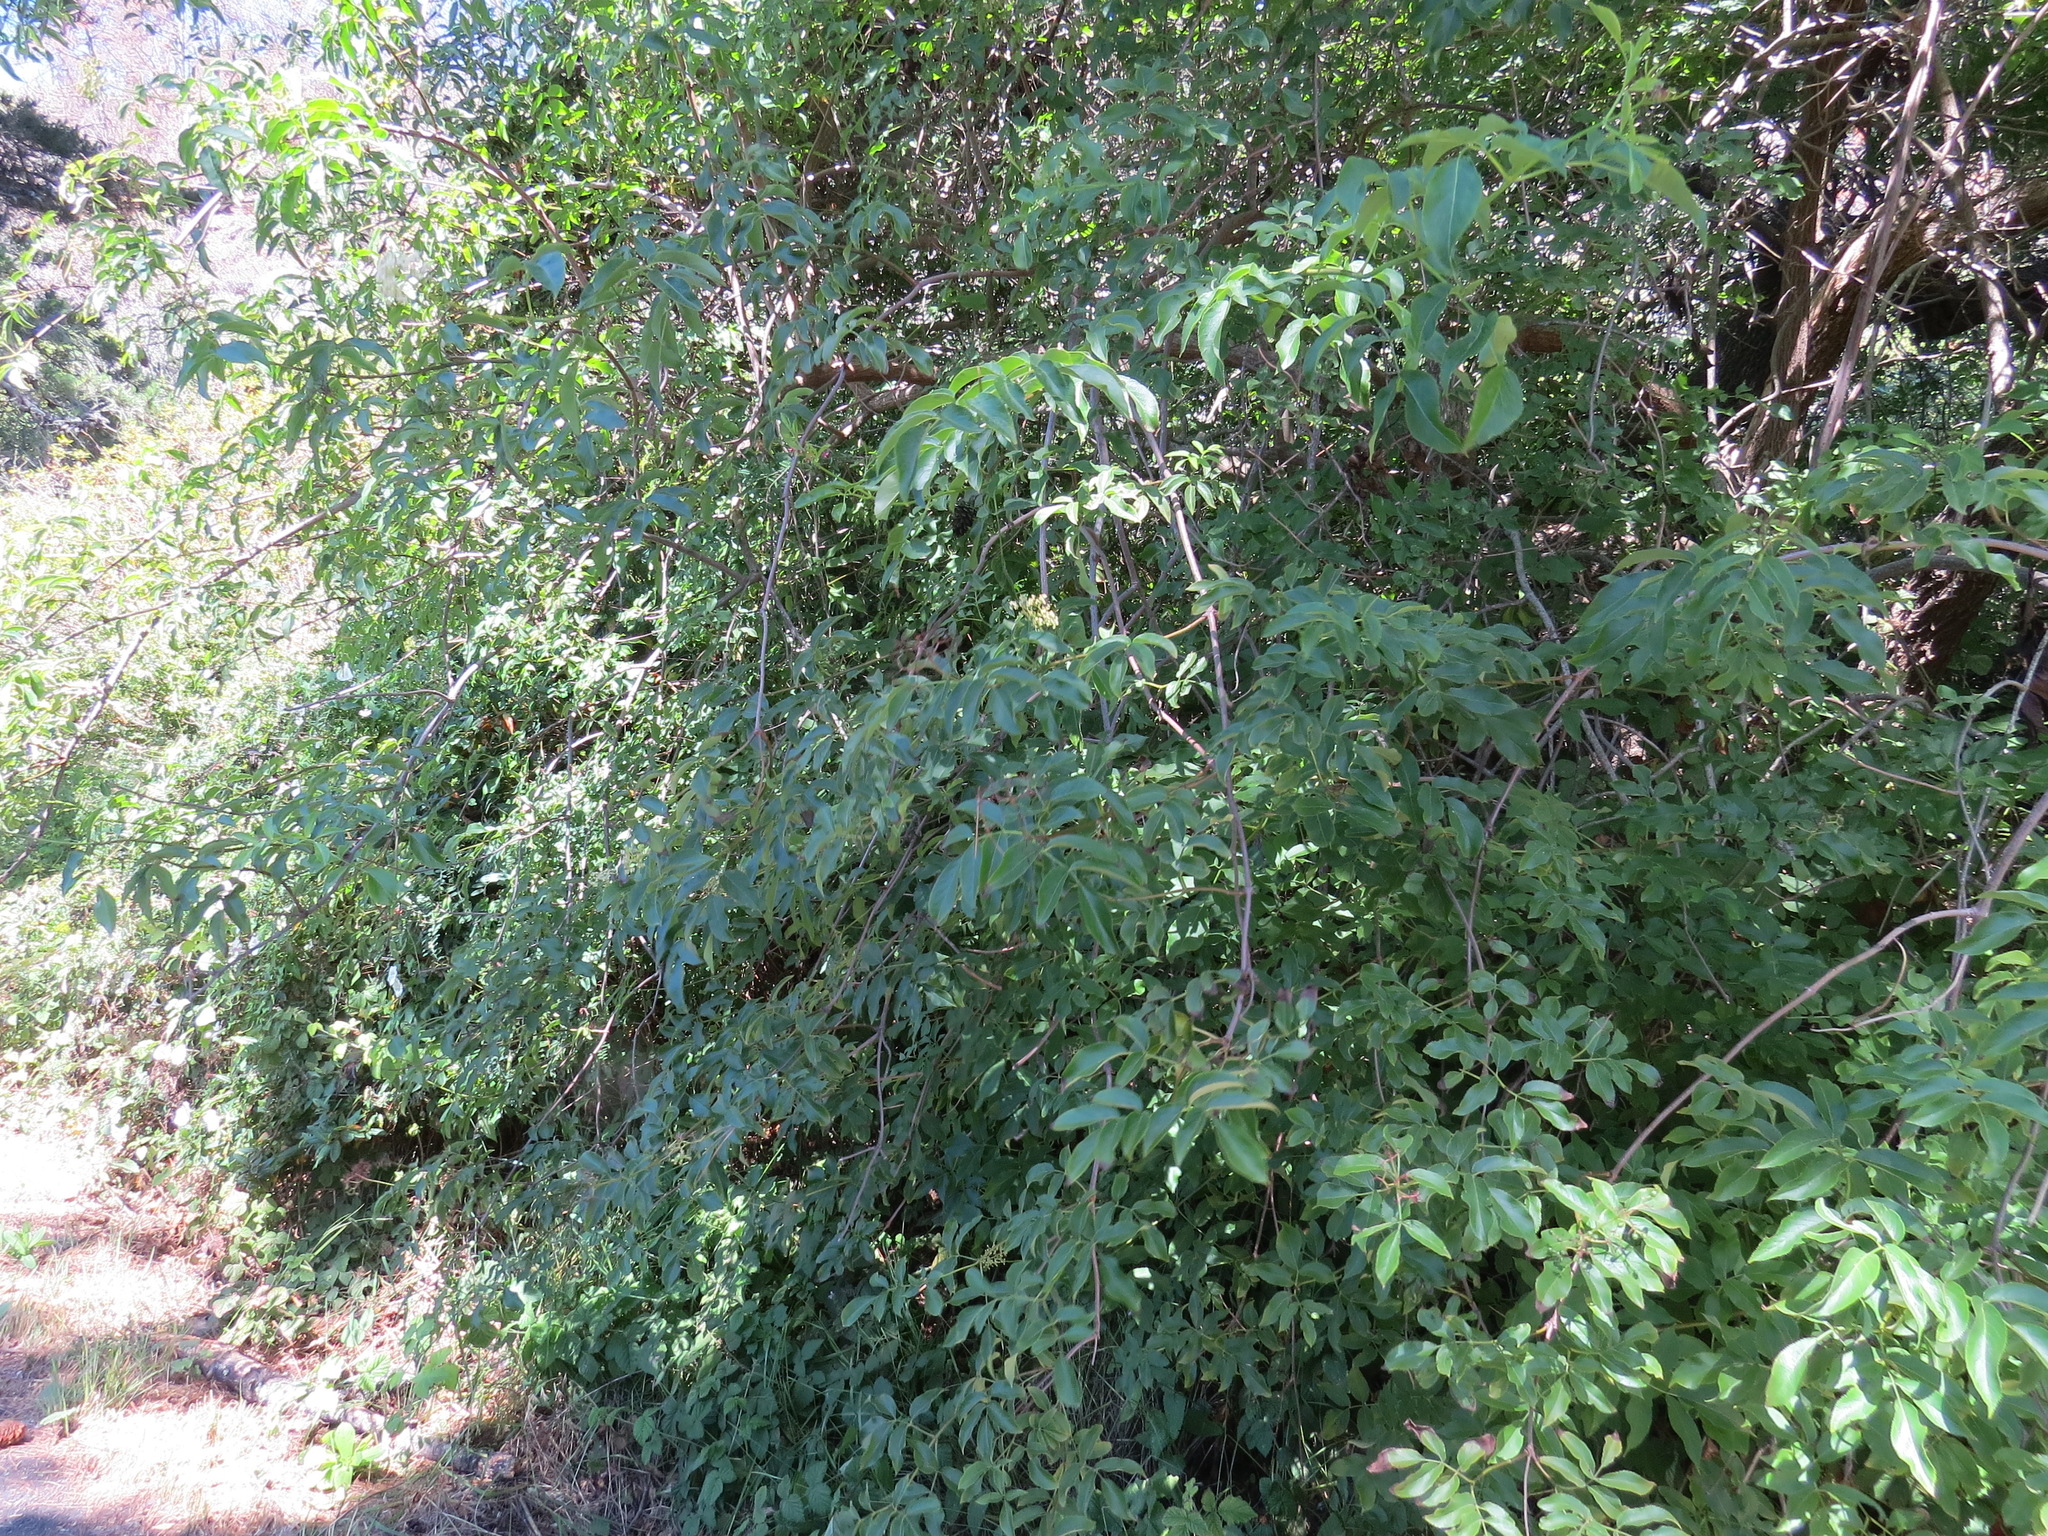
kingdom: Plantae
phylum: Tracheophyta
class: Magnoliopsida
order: Dipsacales
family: Viburnaceae
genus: Sambucus
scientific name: Sambucus cerulea
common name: Blue elder
